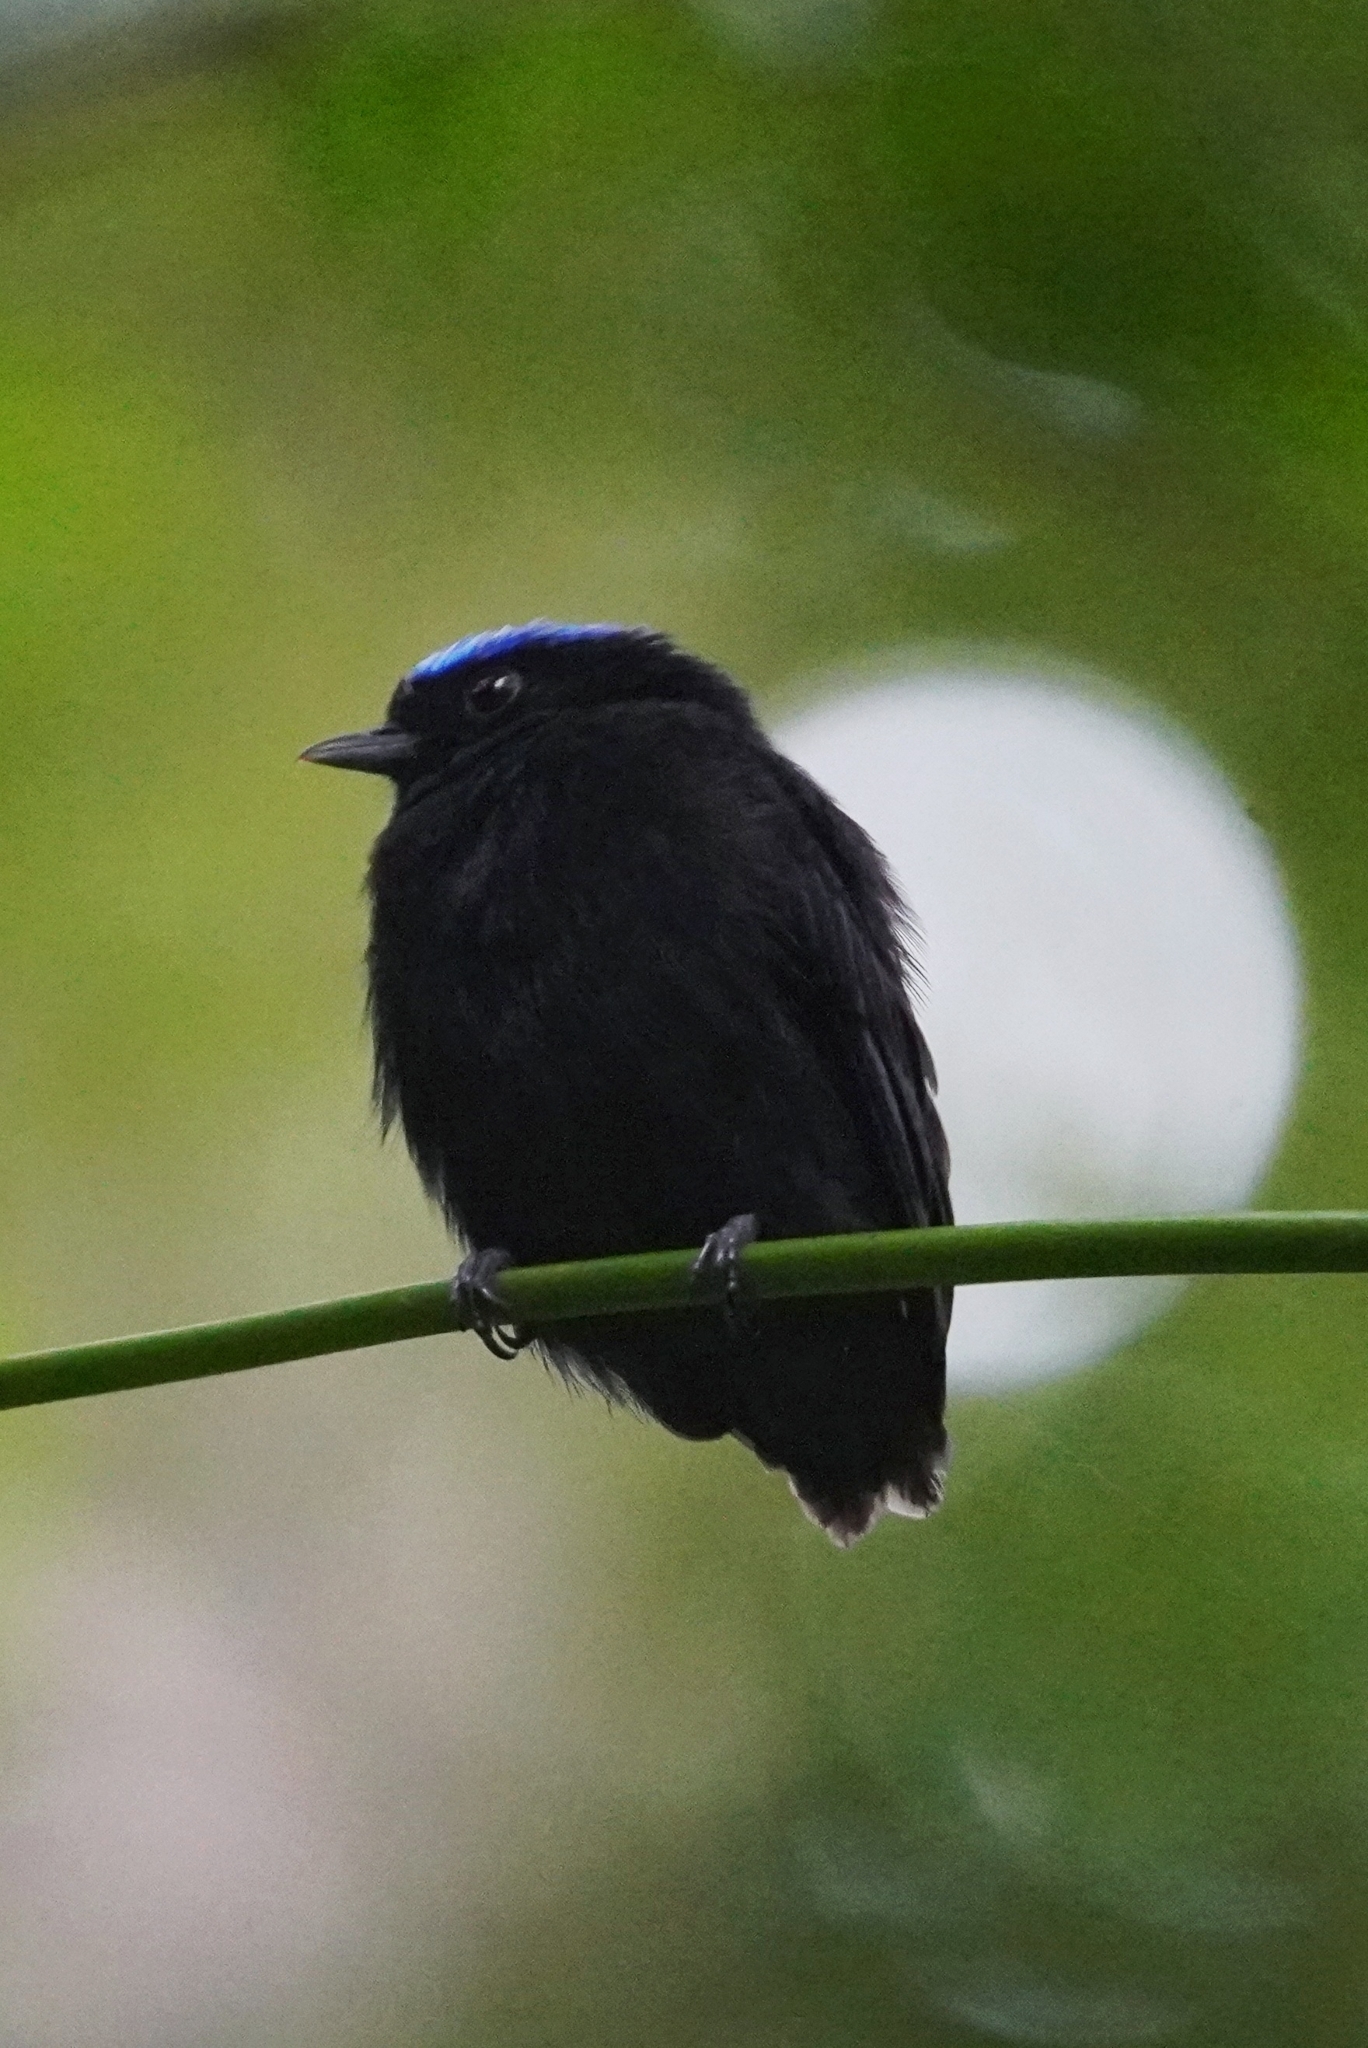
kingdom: Animalia
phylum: Chordata
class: Aves
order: Passeriformes
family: Pipridae
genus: Lepidothrix
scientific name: Lepidothrix coronata
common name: Blue-crowned manakin
